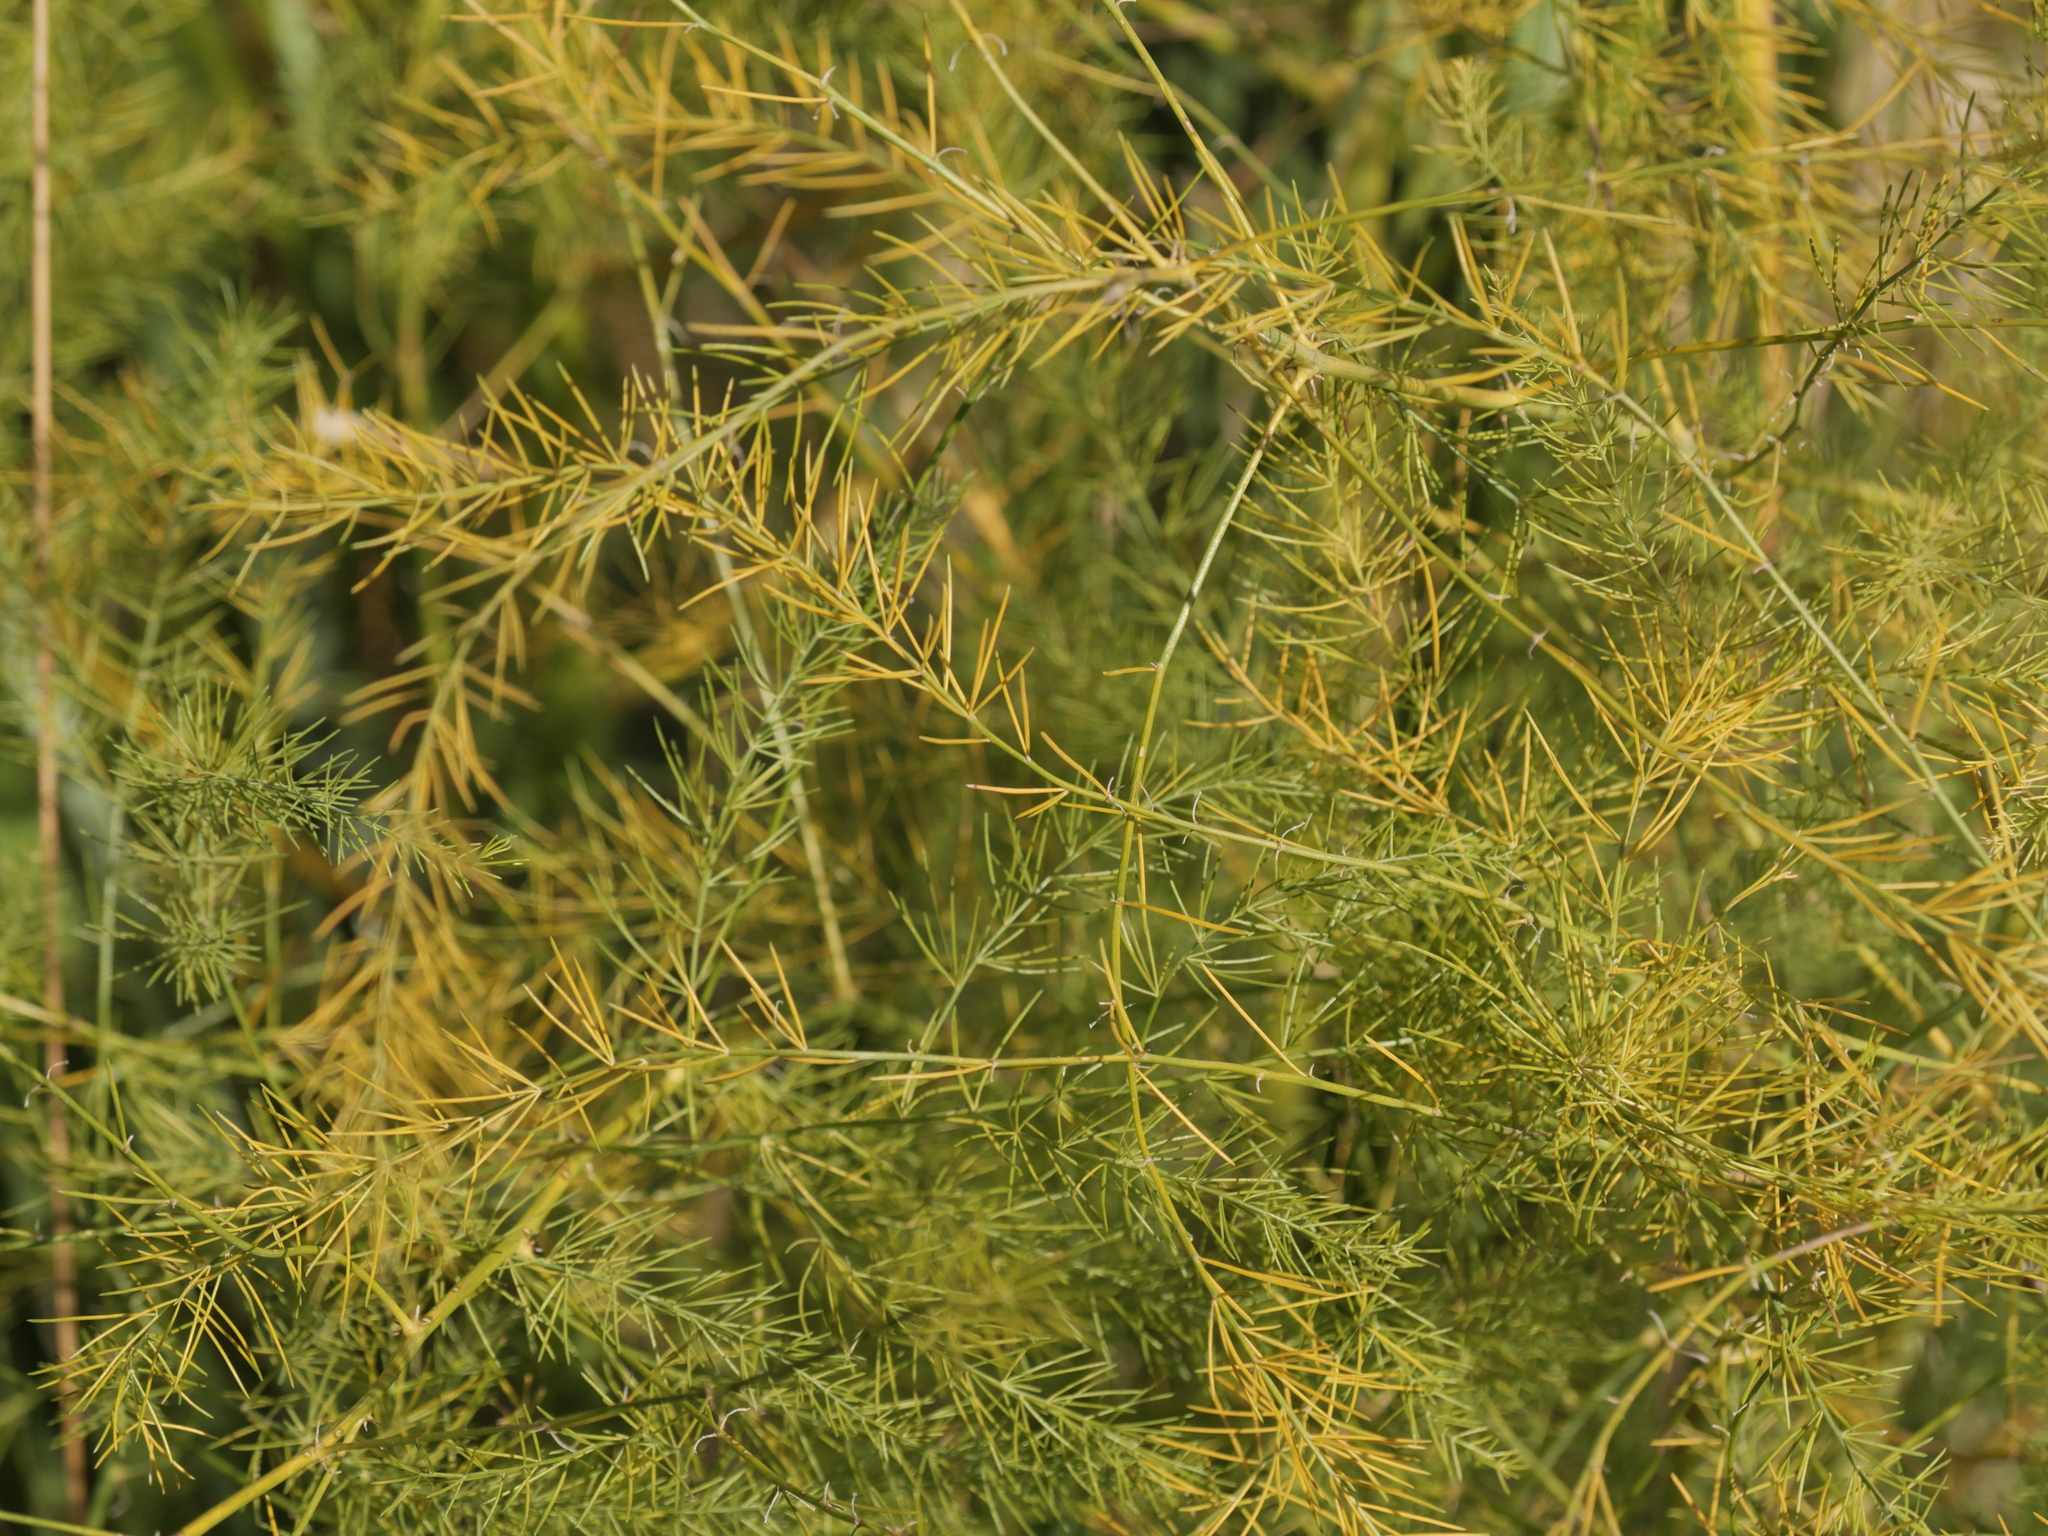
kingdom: Plantae
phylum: Tracheophyta
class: Liliopsida
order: Asparagales
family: Asparagaceae
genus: Asparagus
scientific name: Asparagus officinalis
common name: Garden asparagus
